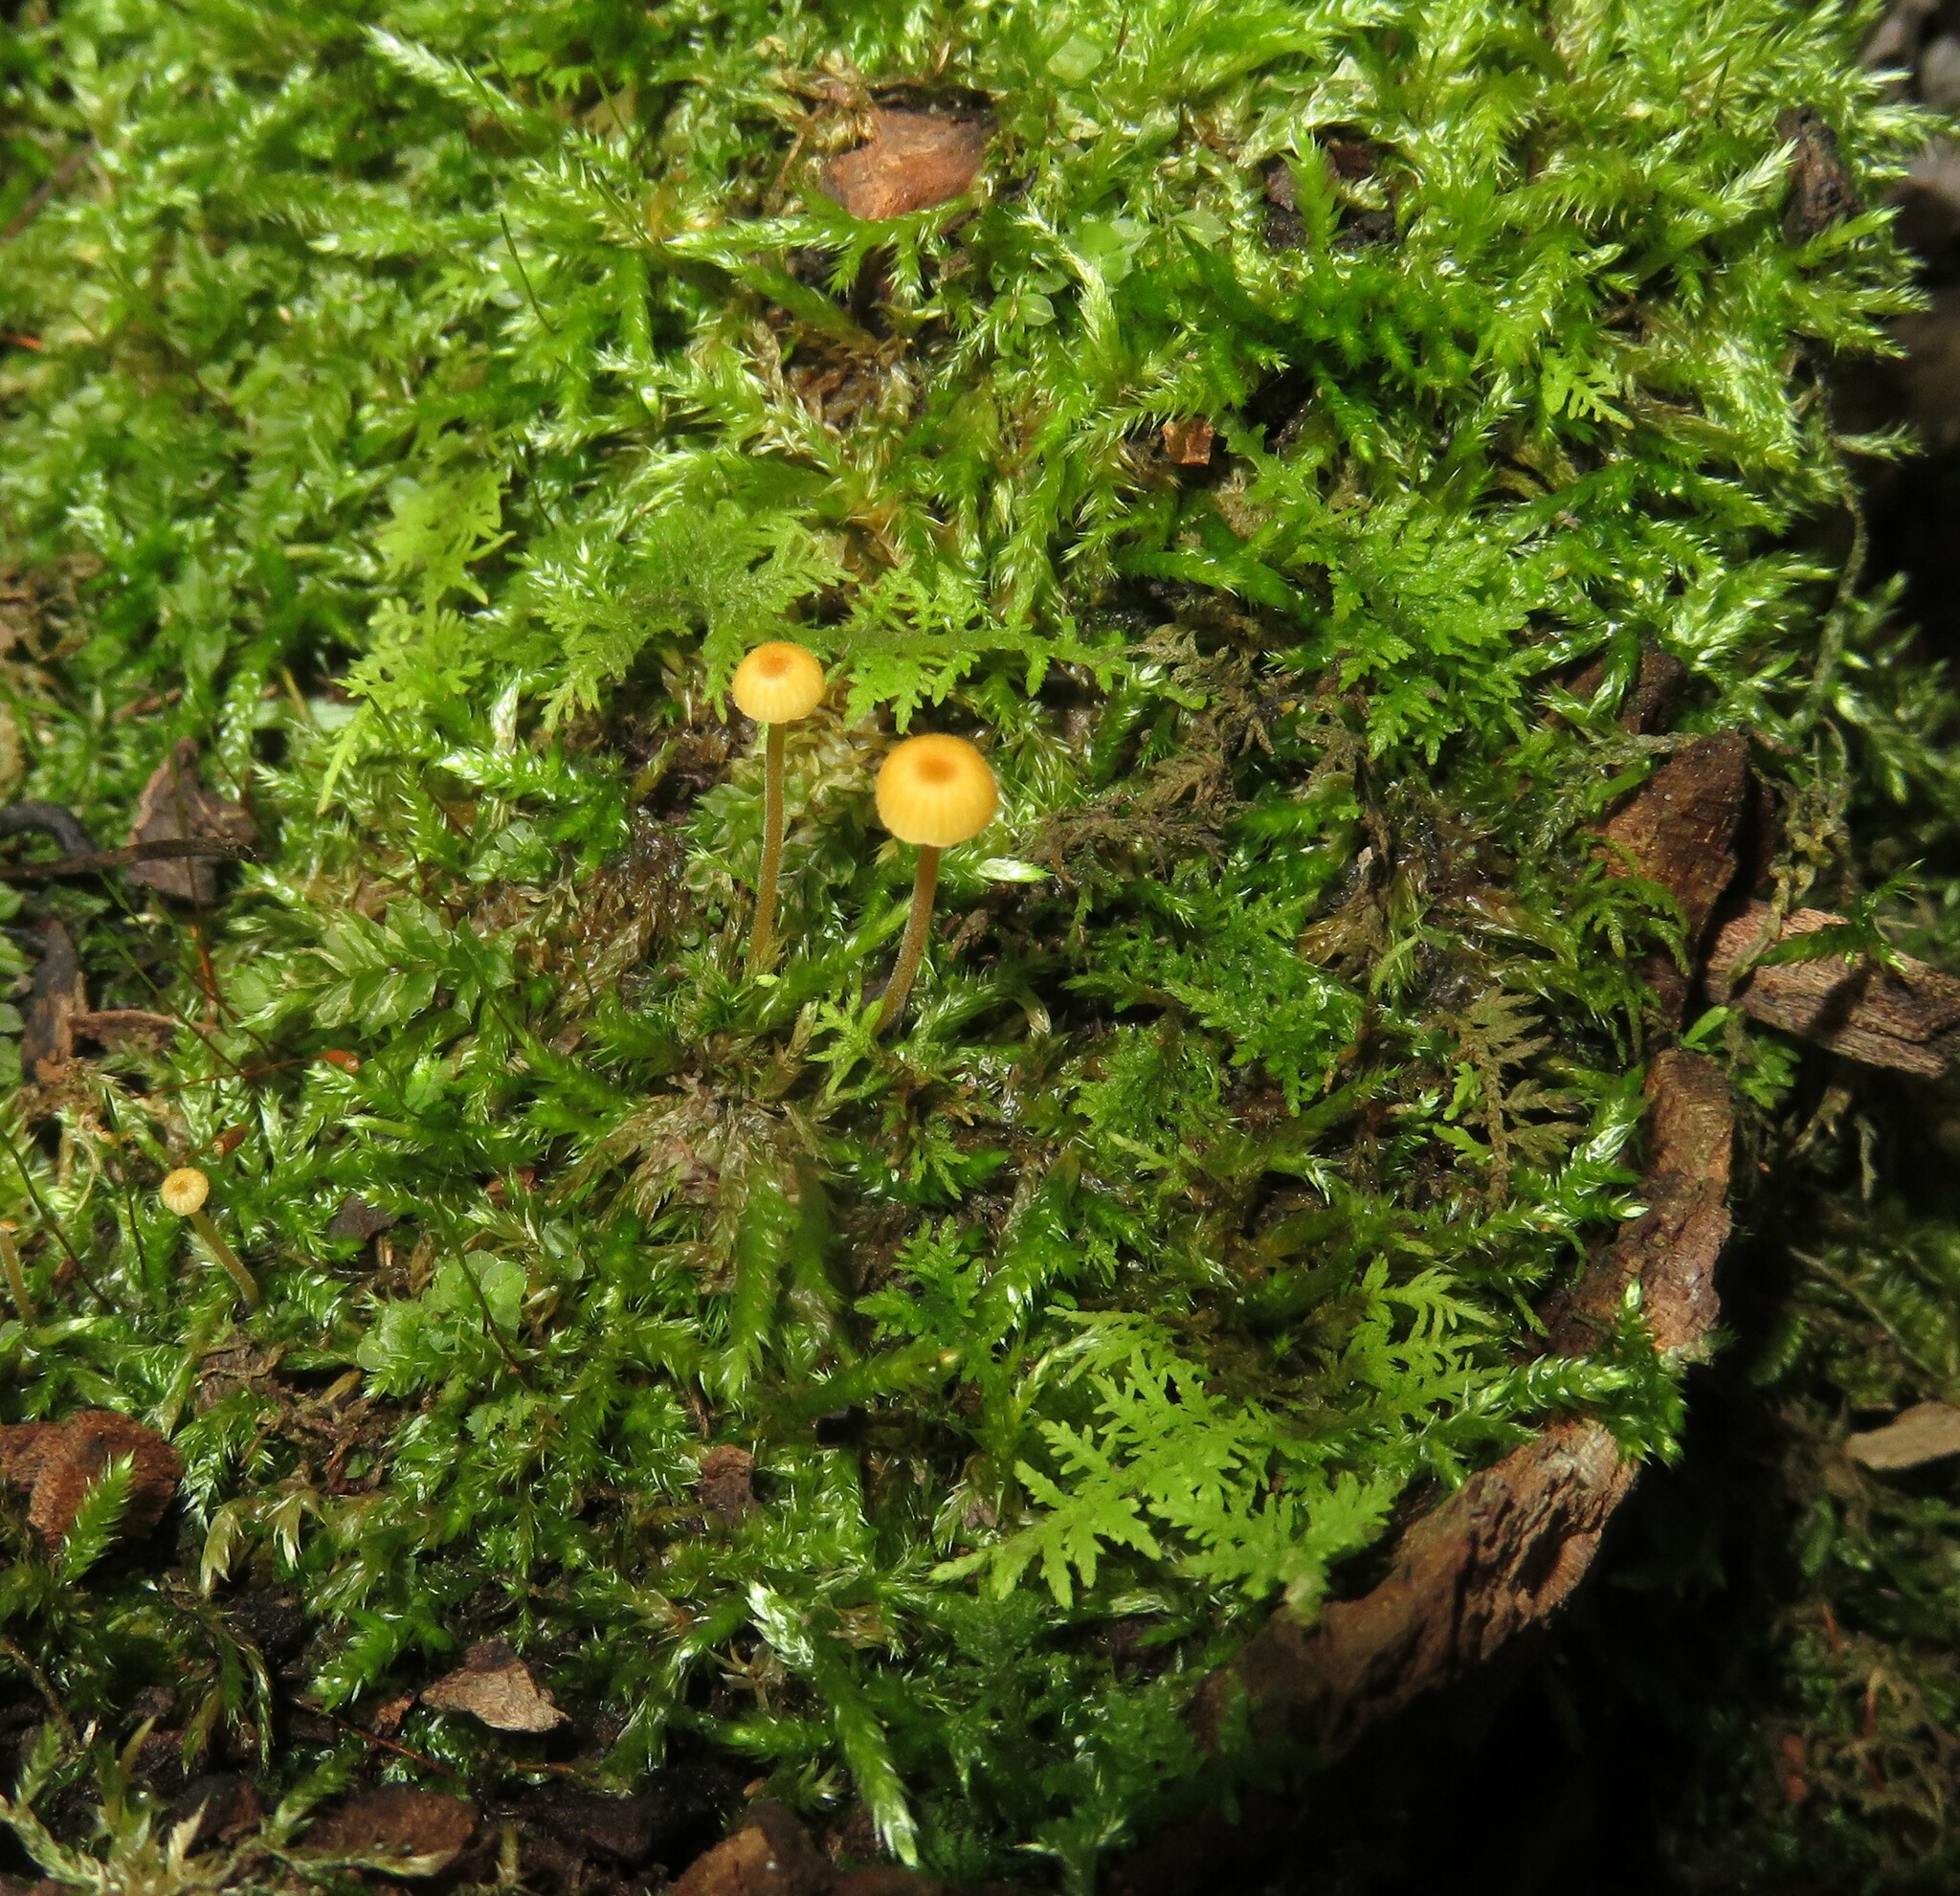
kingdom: Fungi
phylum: Basidiomycota
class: Agaricomycetes
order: Hymenochaetales
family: Rickenellaceae
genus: Rickenella
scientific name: Rickenella fibula
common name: Orange mosscap
